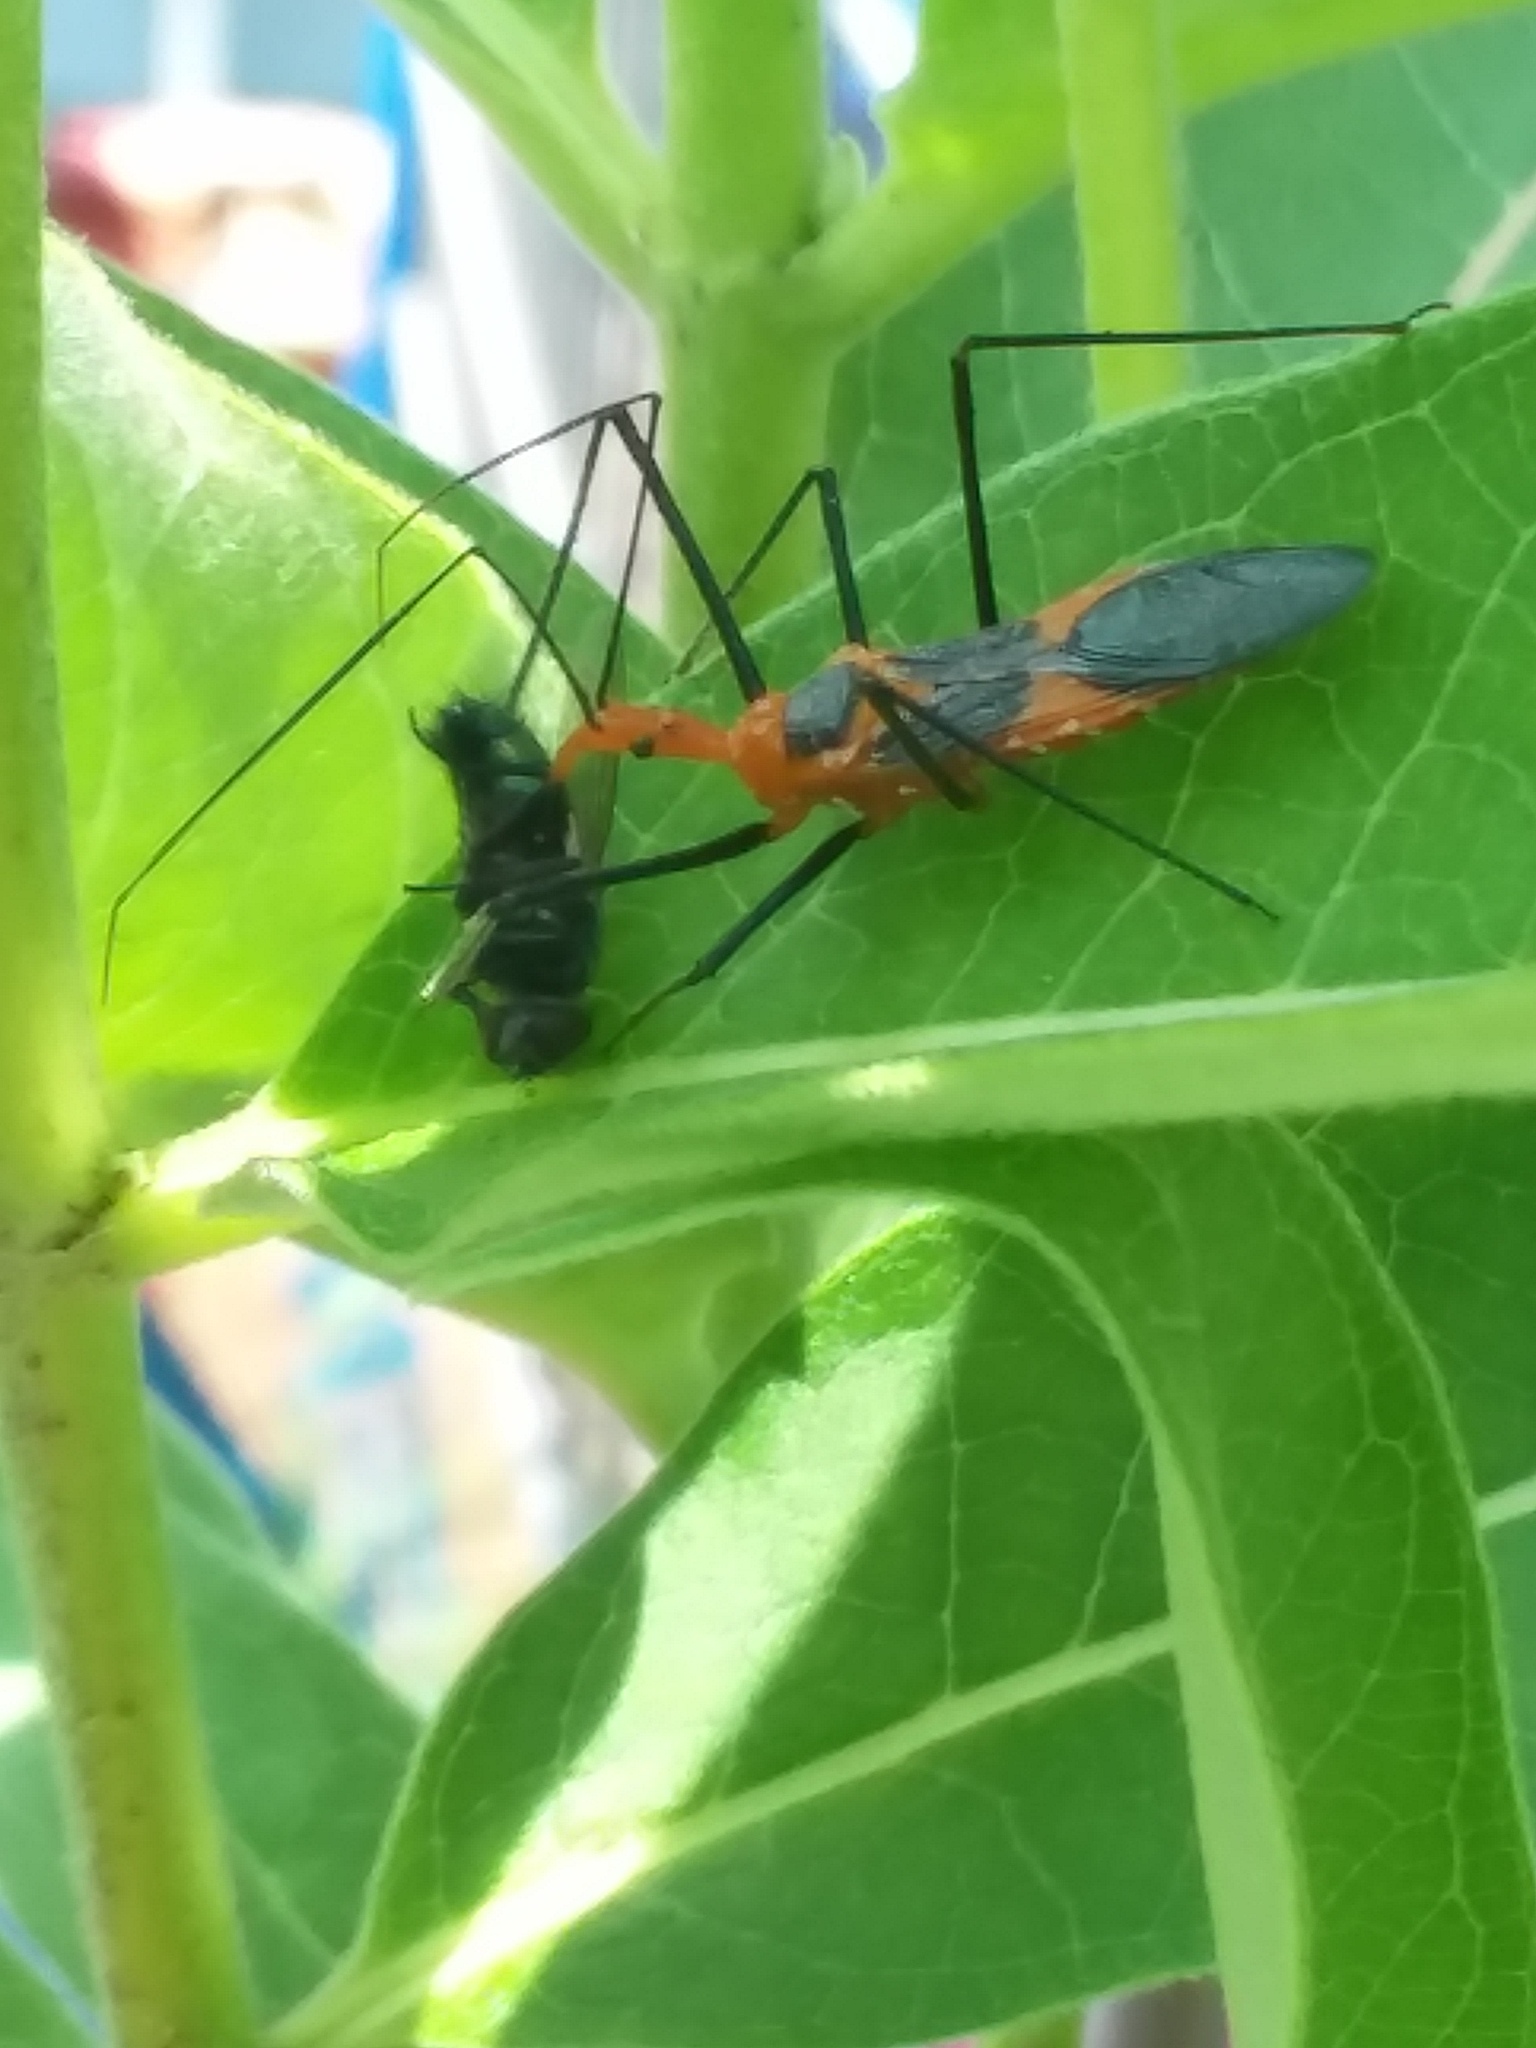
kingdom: Animalia
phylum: Arthropoda
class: Insecta
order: Hemiptera
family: Reduviidae
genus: Zelus
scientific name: Zelus longipes
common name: Milkweed assassin bug
